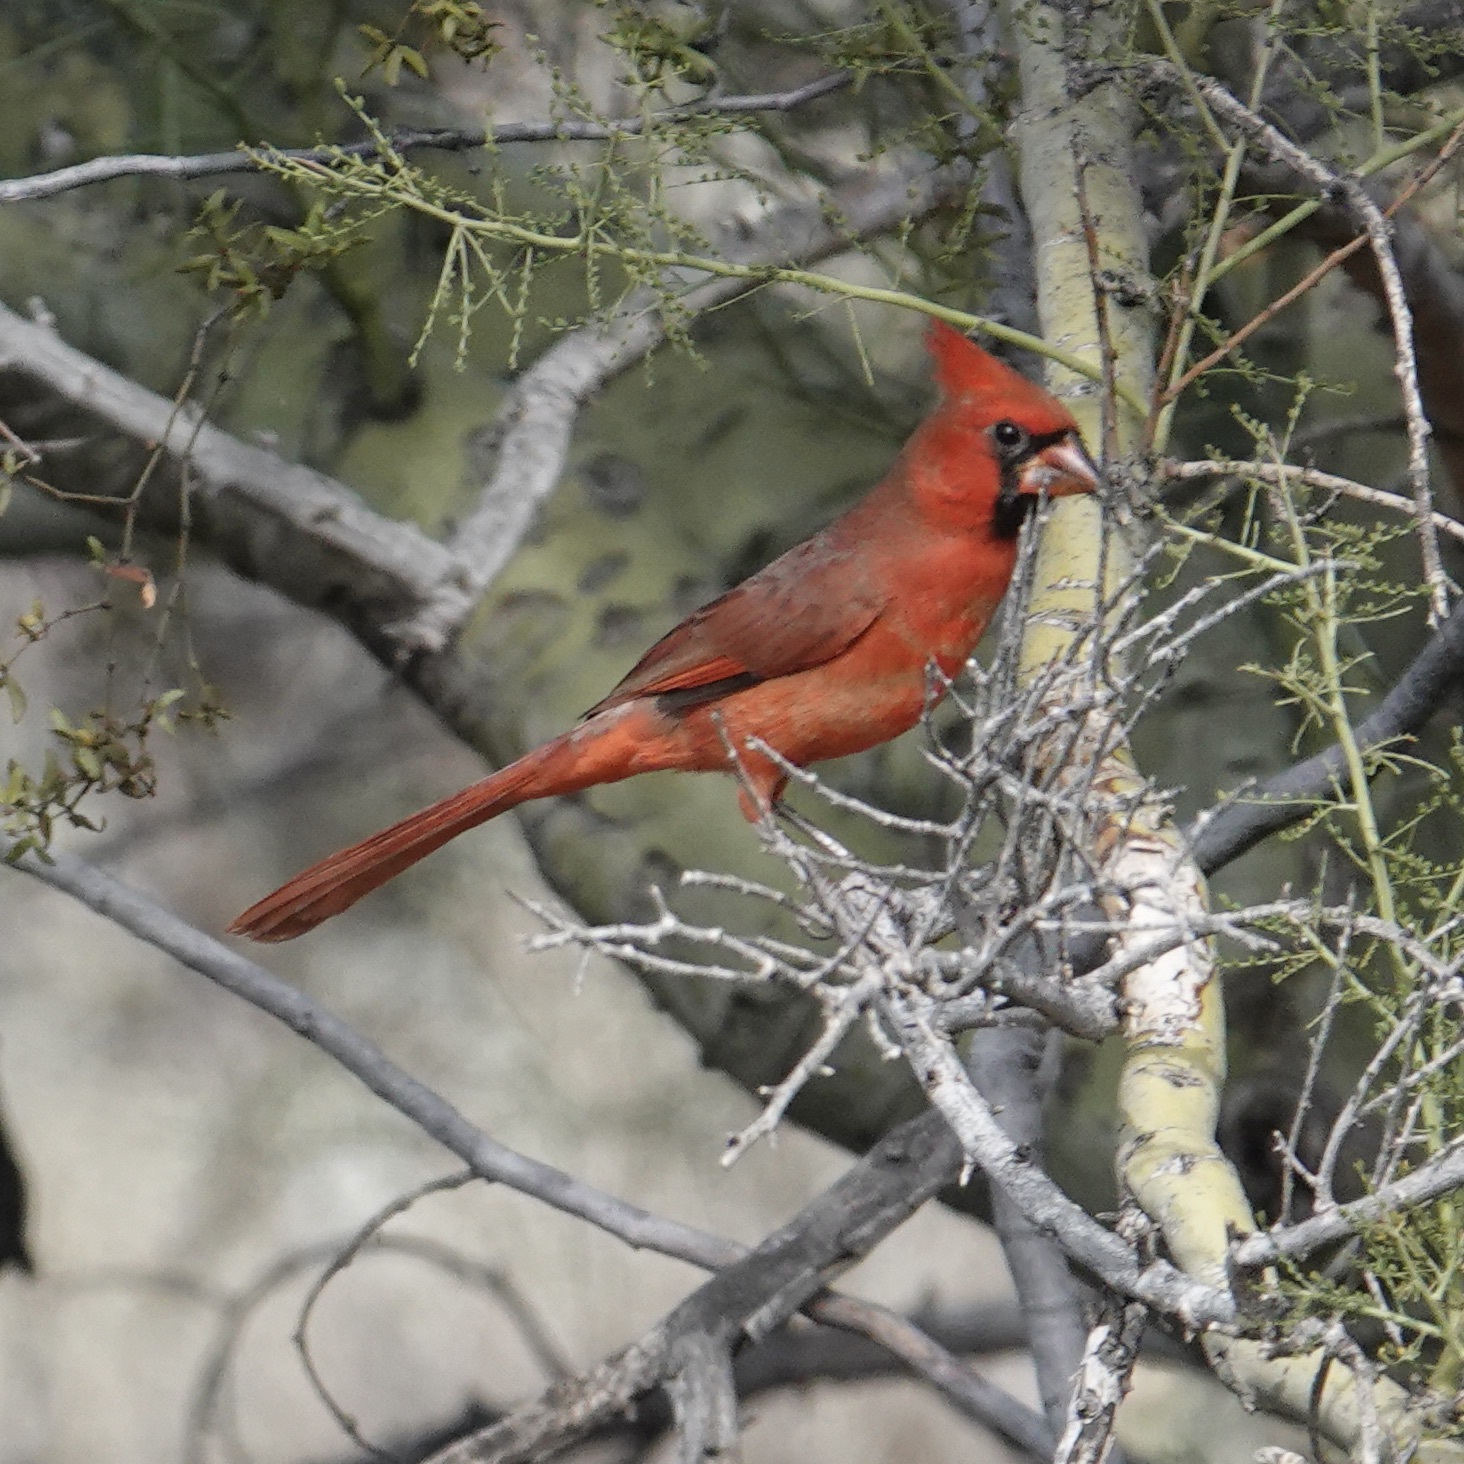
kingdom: Animalia
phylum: Chordata
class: Aves
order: Passeriformes
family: Cardinalidae
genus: Cardinalis
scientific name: Cardinalis cardinalis
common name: Northern cardinal
